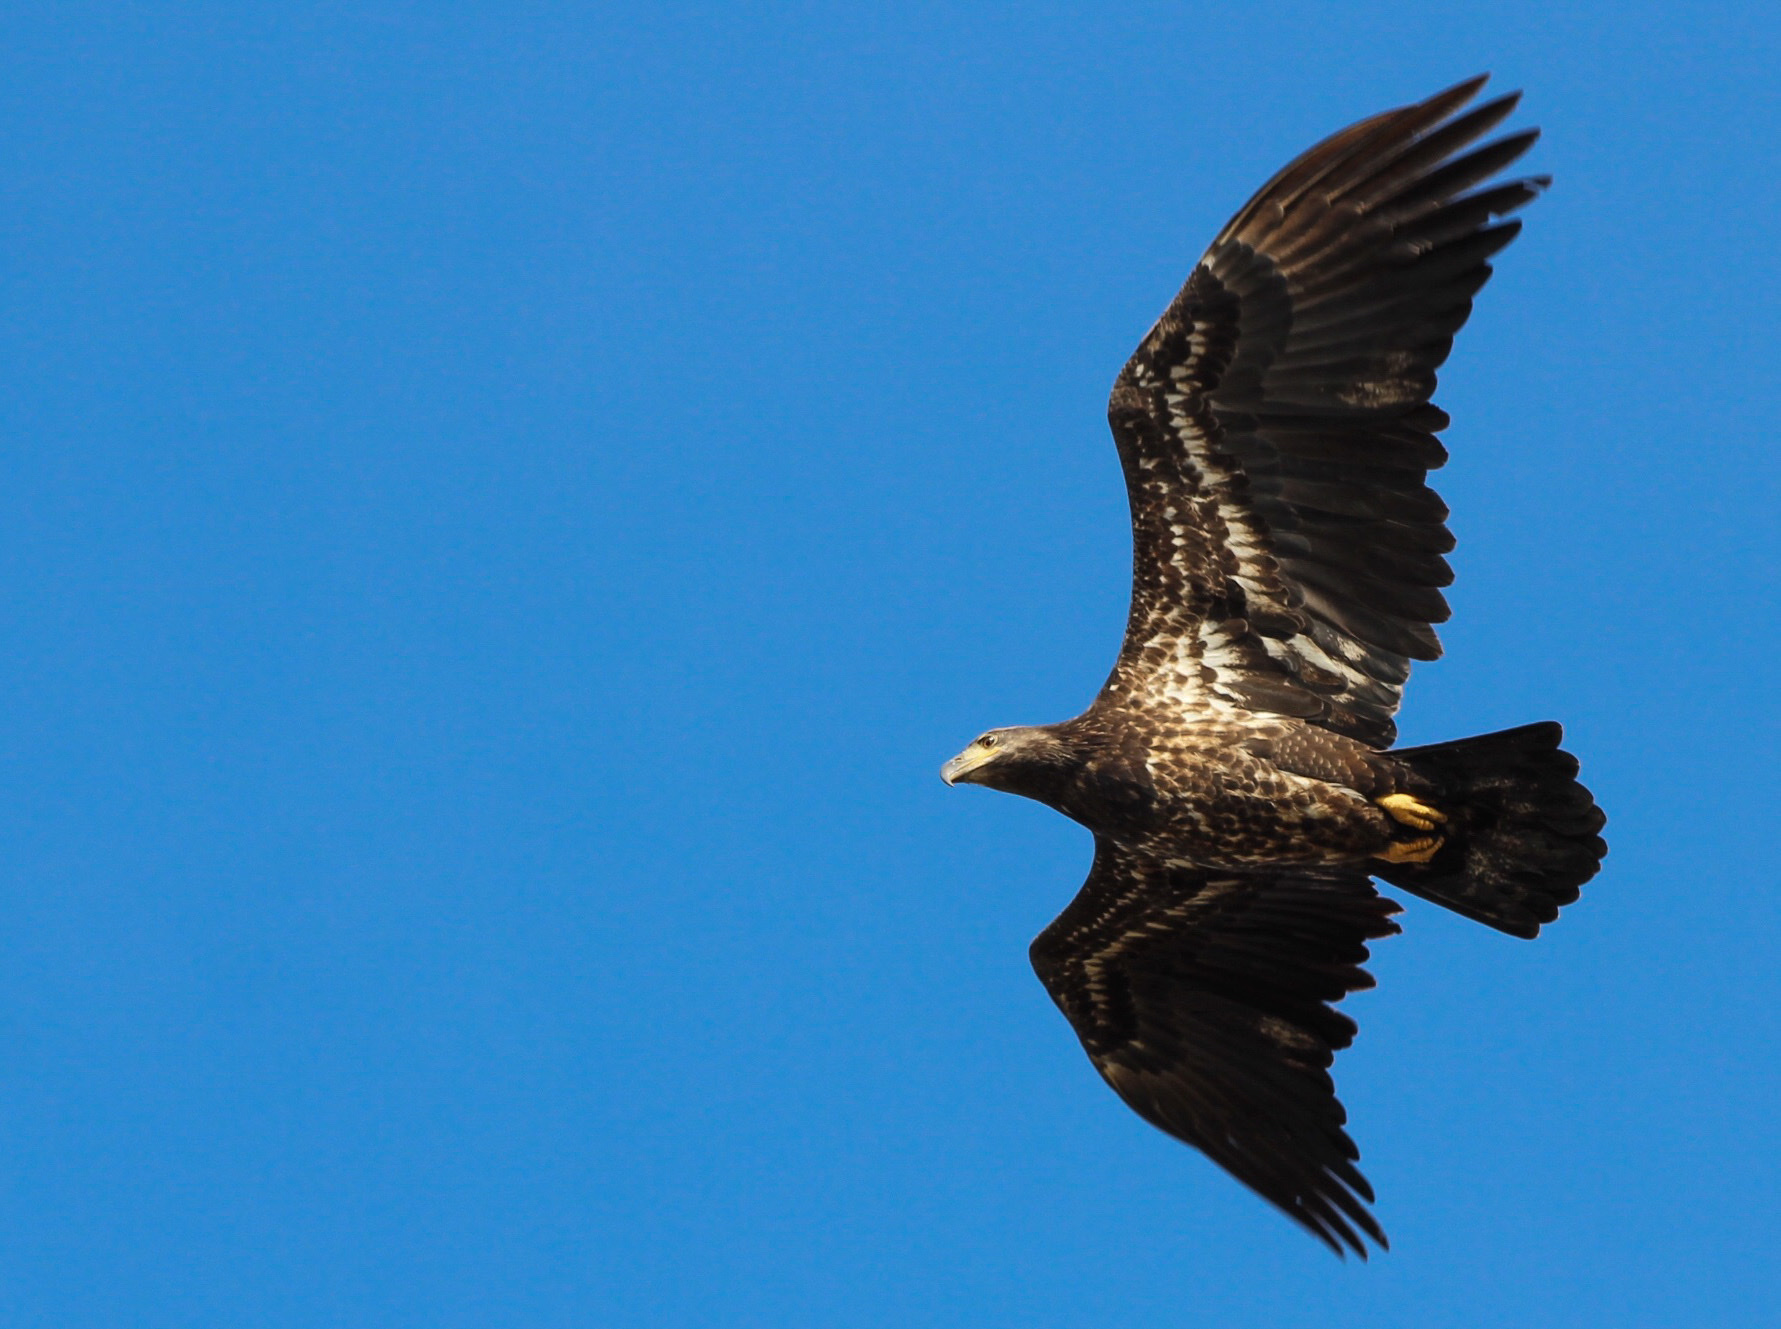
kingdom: Animalia
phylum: Chordata
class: Aves
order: Accipitriformes
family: Accipitridae
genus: Haliaeetus
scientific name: Haliaeetus leucocephalus
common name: Bald eagle
